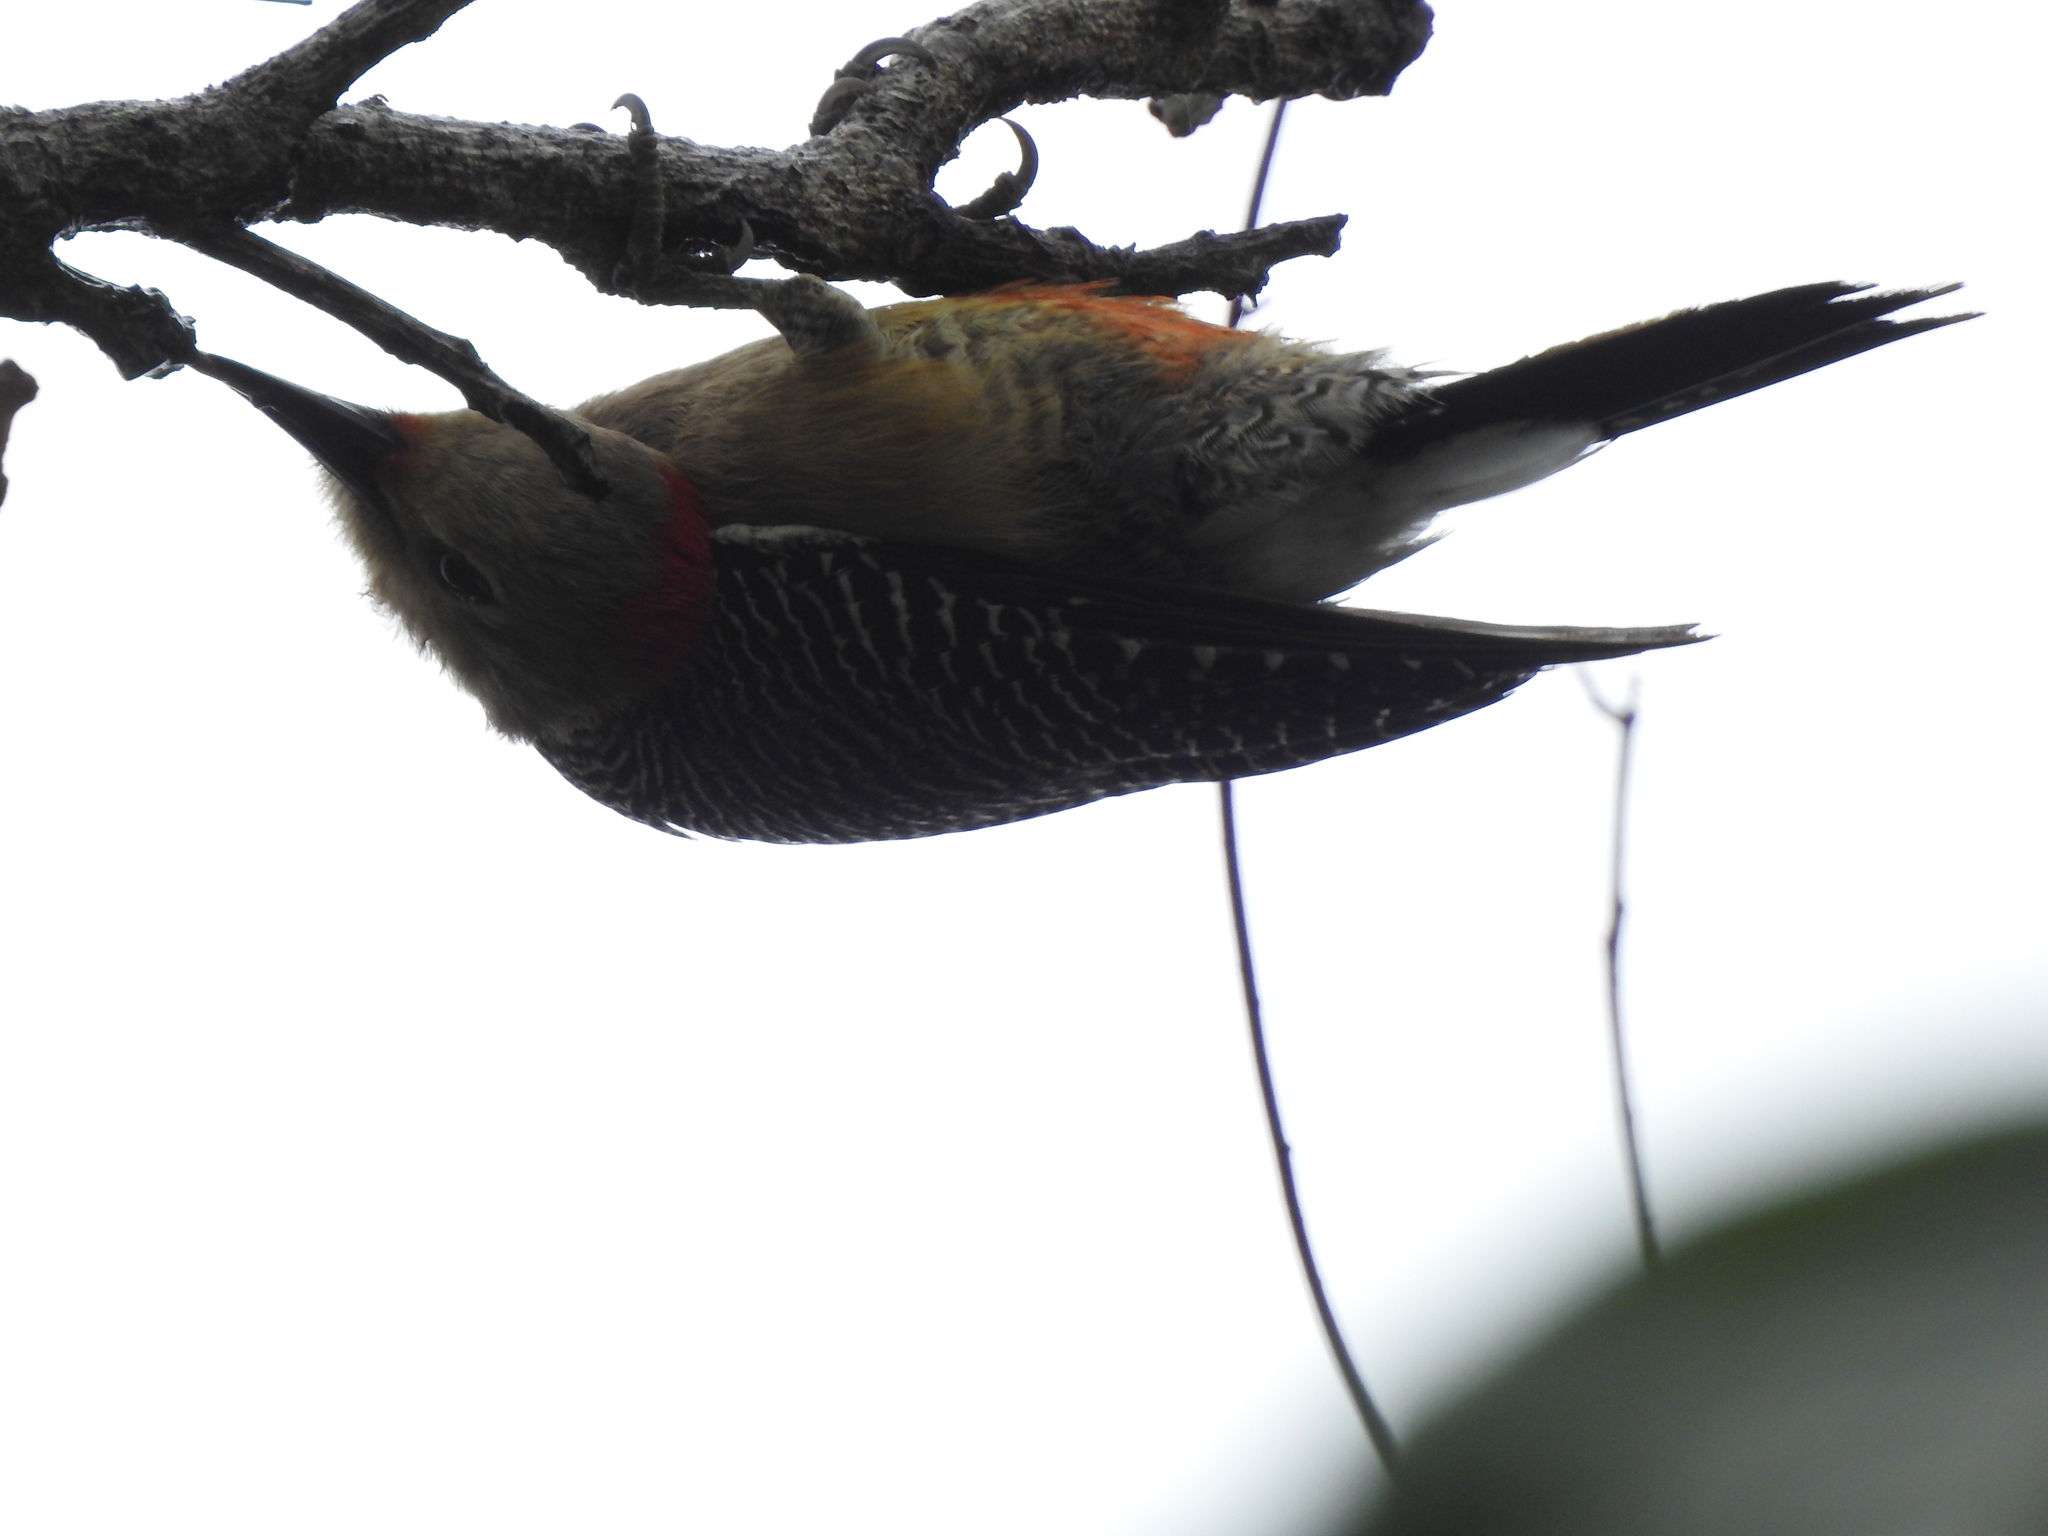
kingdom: Animalia
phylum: Chordata
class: Aves
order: Piciformes
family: Picidae
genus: Melanerpes
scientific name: Melanerpes aurifrons
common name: Golden-fronted woodpecker
